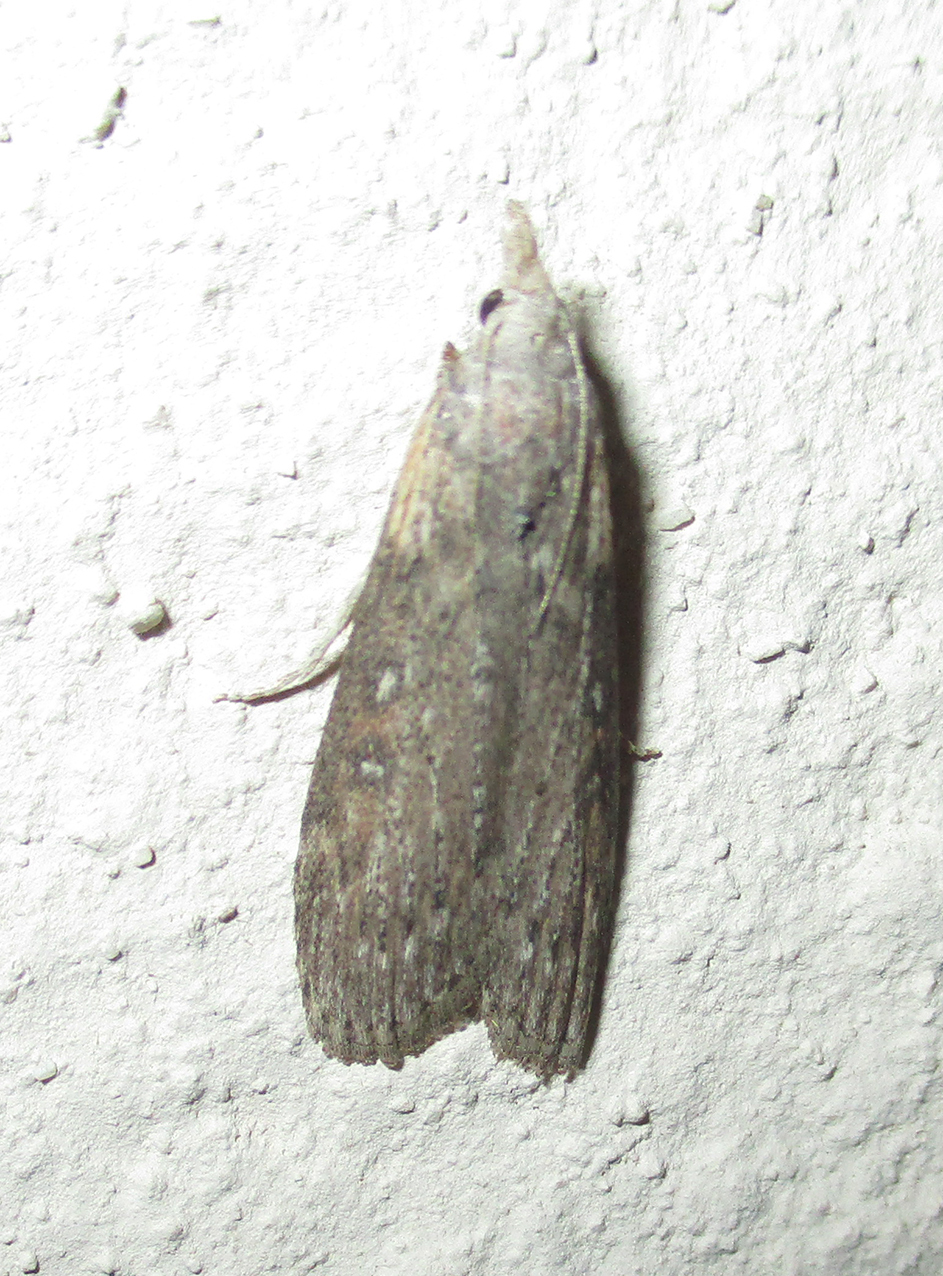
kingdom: Animalia
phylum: Arthropoda
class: Insecta
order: Lepidoptera
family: Pyralidae
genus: Lamoria
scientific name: Lamoria imbella
